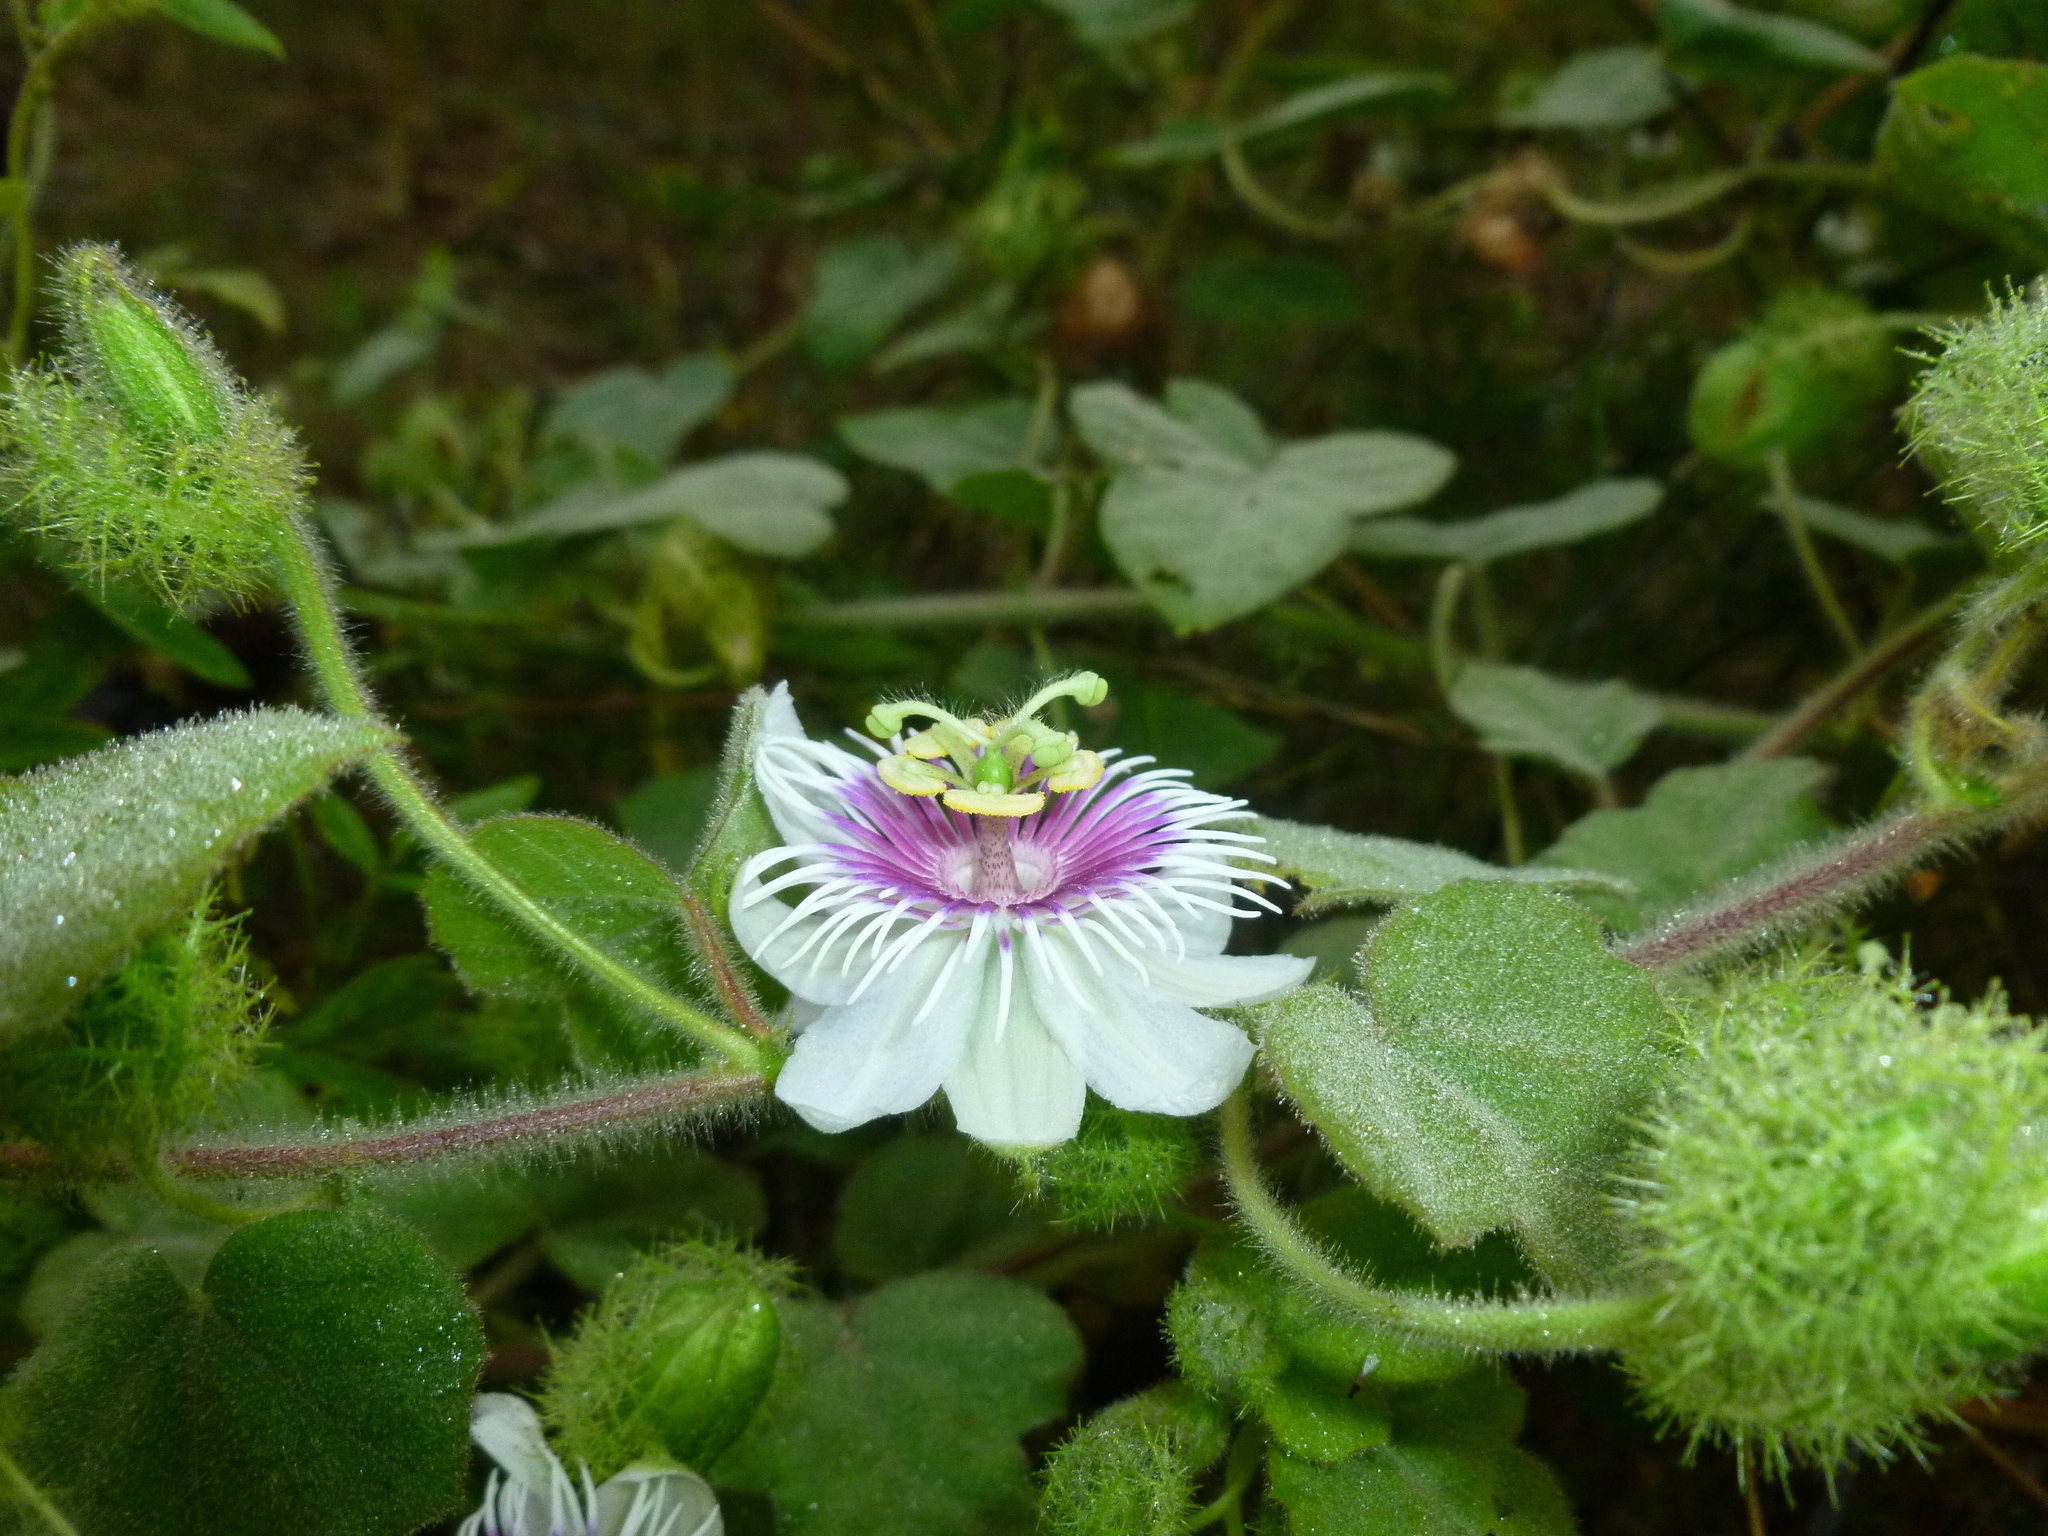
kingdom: Plantae
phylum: Tracheophyta
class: Magnoliopsida
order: Malpighiales
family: Passifloraceae
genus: Passiflora
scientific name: Passiflora foetida
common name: Fetid passionflower
